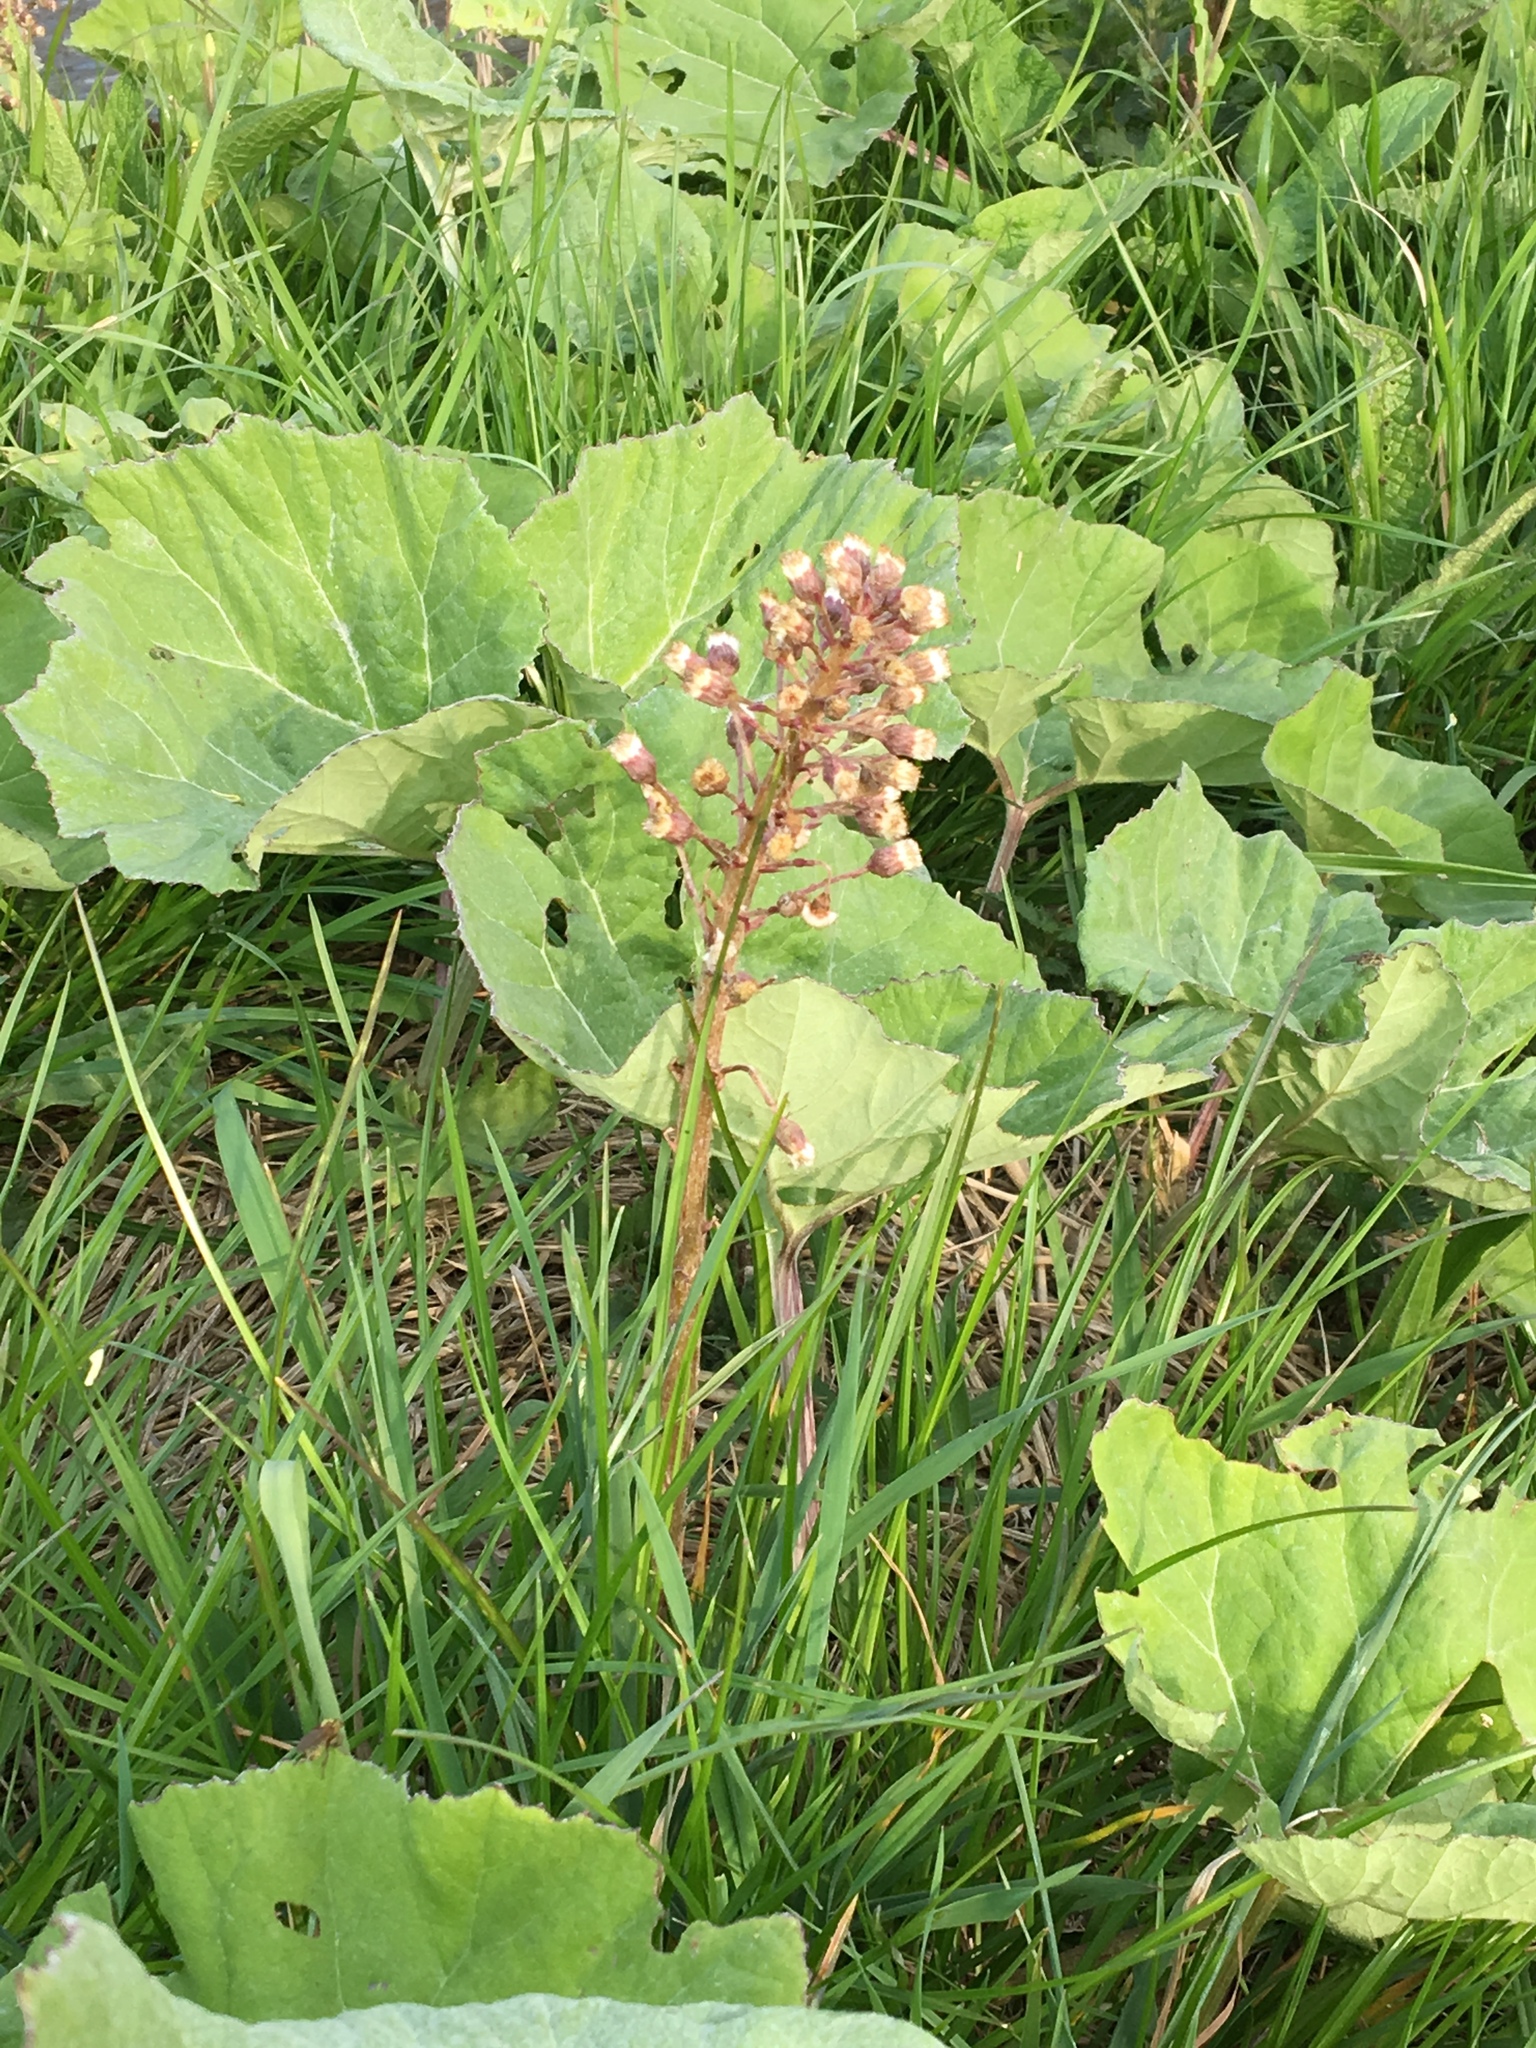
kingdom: Plantae
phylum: Tracheophyta
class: Magnoliopsida
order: Asterales
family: Asteraceae
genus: Petasites
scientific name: Petasites hybridus
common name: Butterbur
